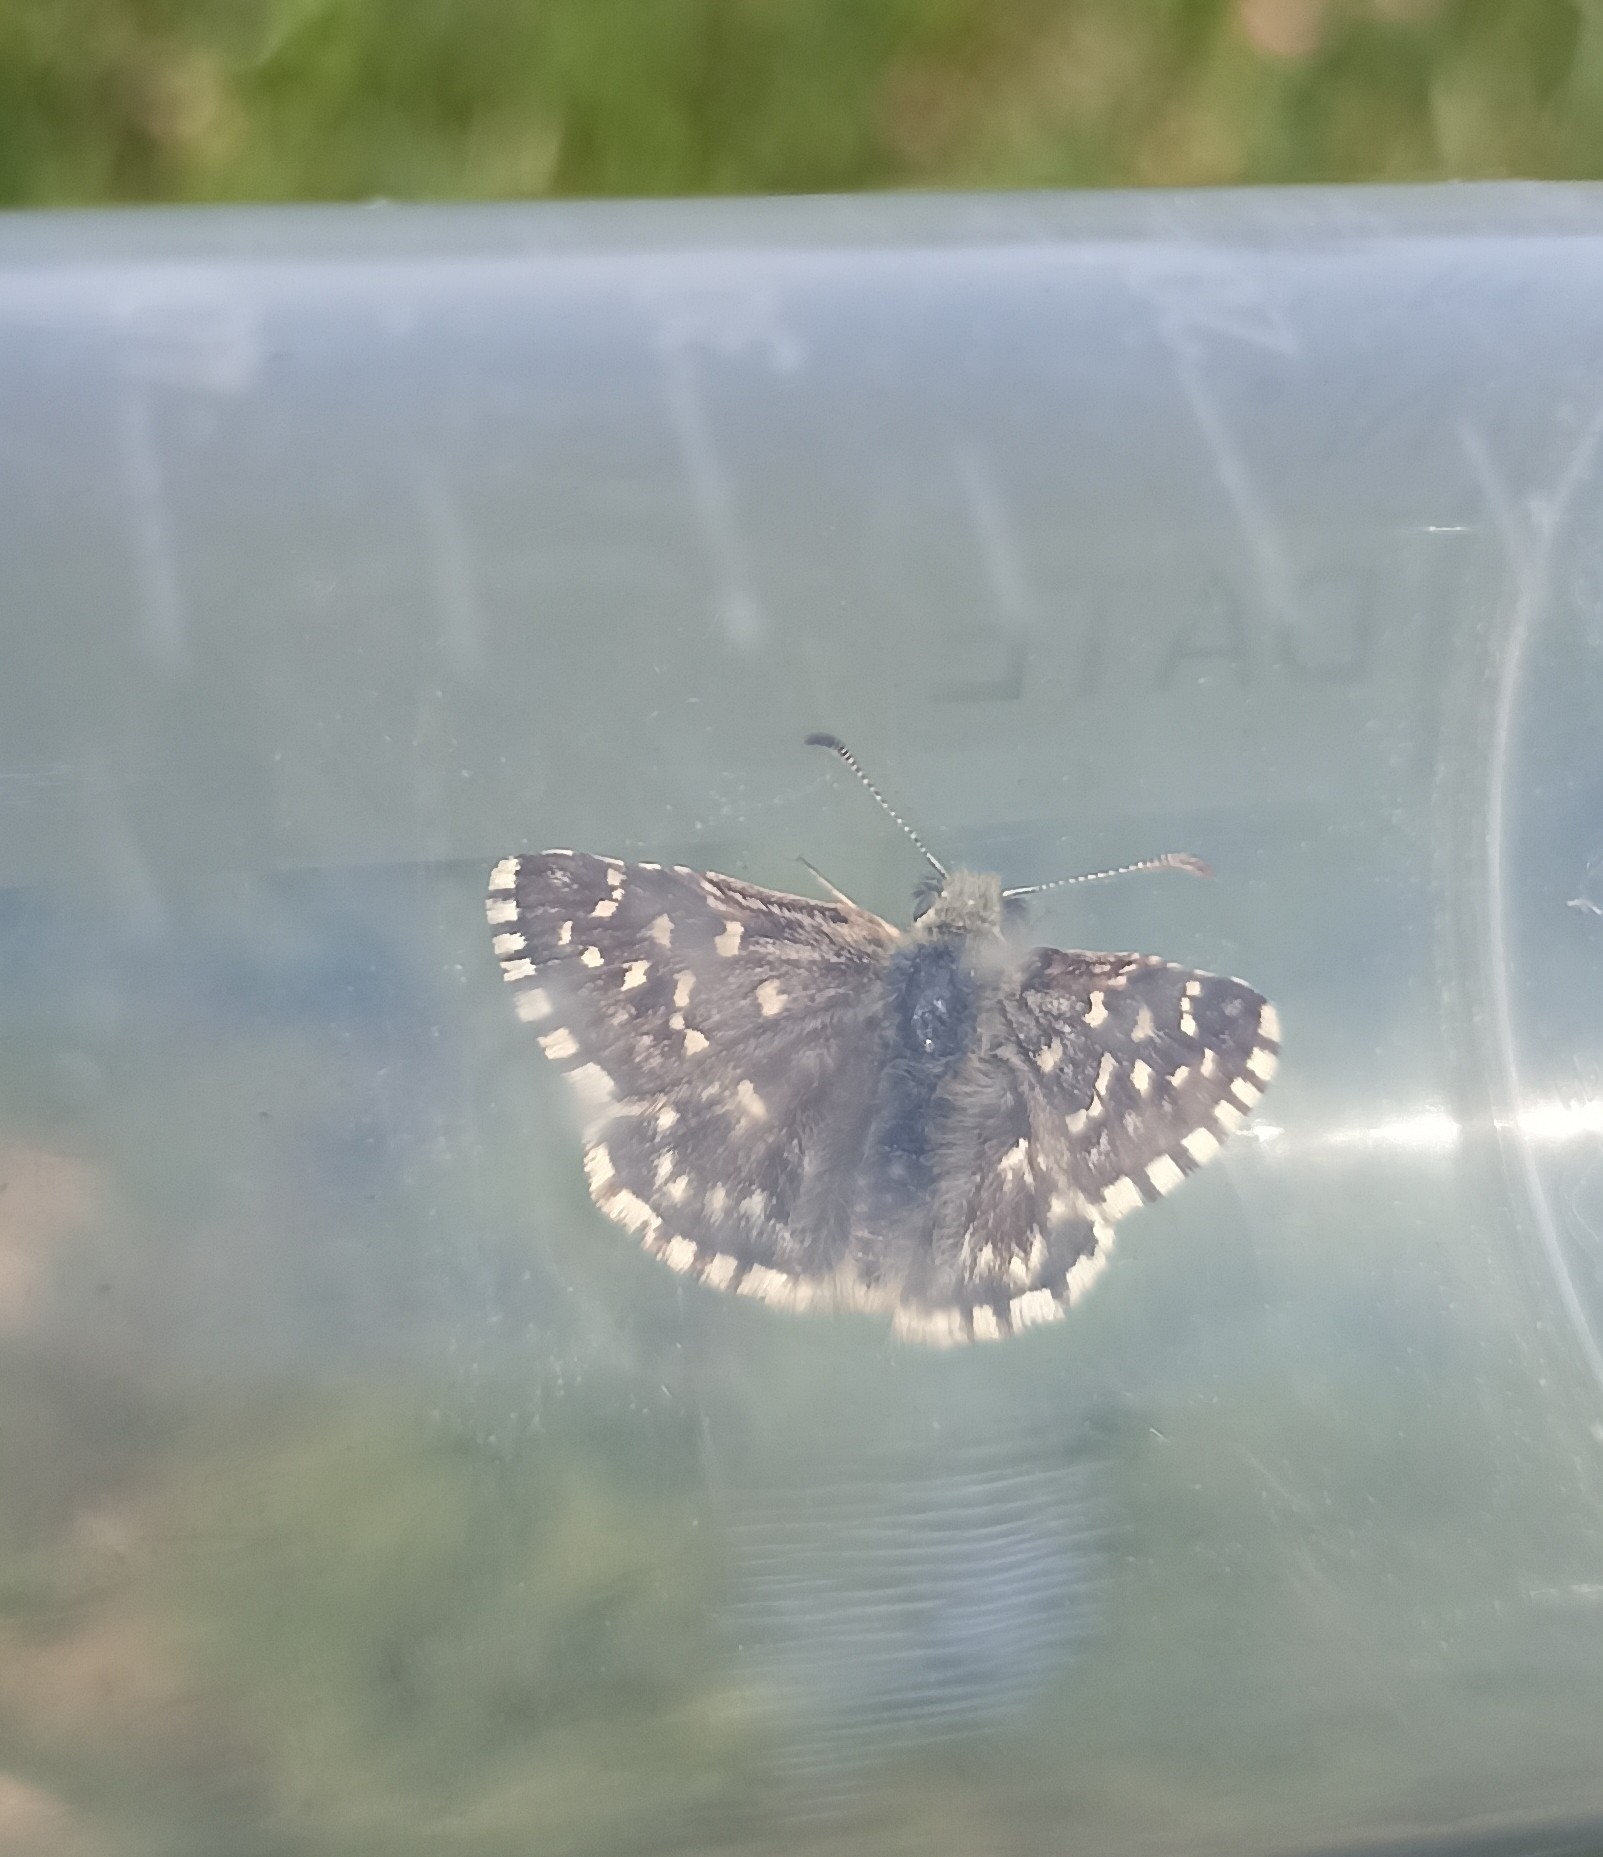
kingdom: Animalia
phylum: Arthropoda
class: Insecta
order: Lepidoptera
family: Hesperiidae
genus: Pyrgus
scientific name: Pyrgus malvoides
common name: Southern grizzled skipper
